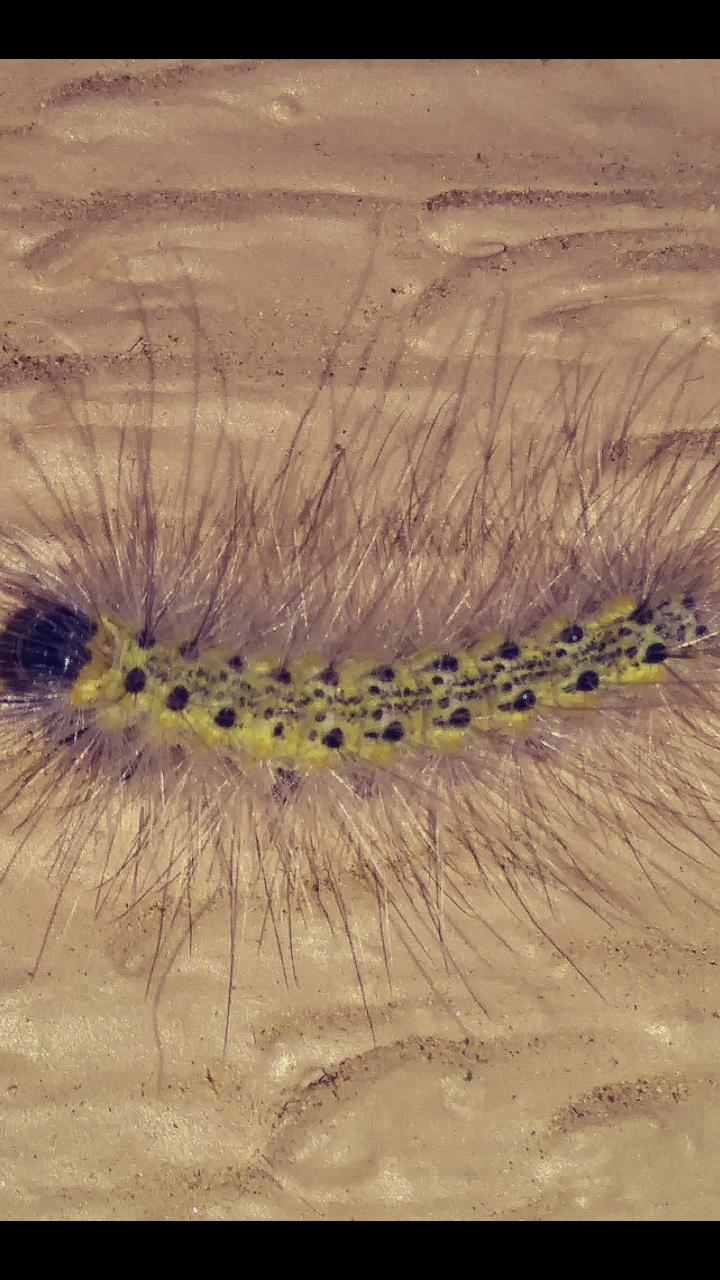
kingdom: Animalia
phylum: Arthropoda
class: Insecta
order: Lepidoptera
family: Erebidae
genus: Hyphantria
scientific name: Hyphantria cunea
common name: American white moth
